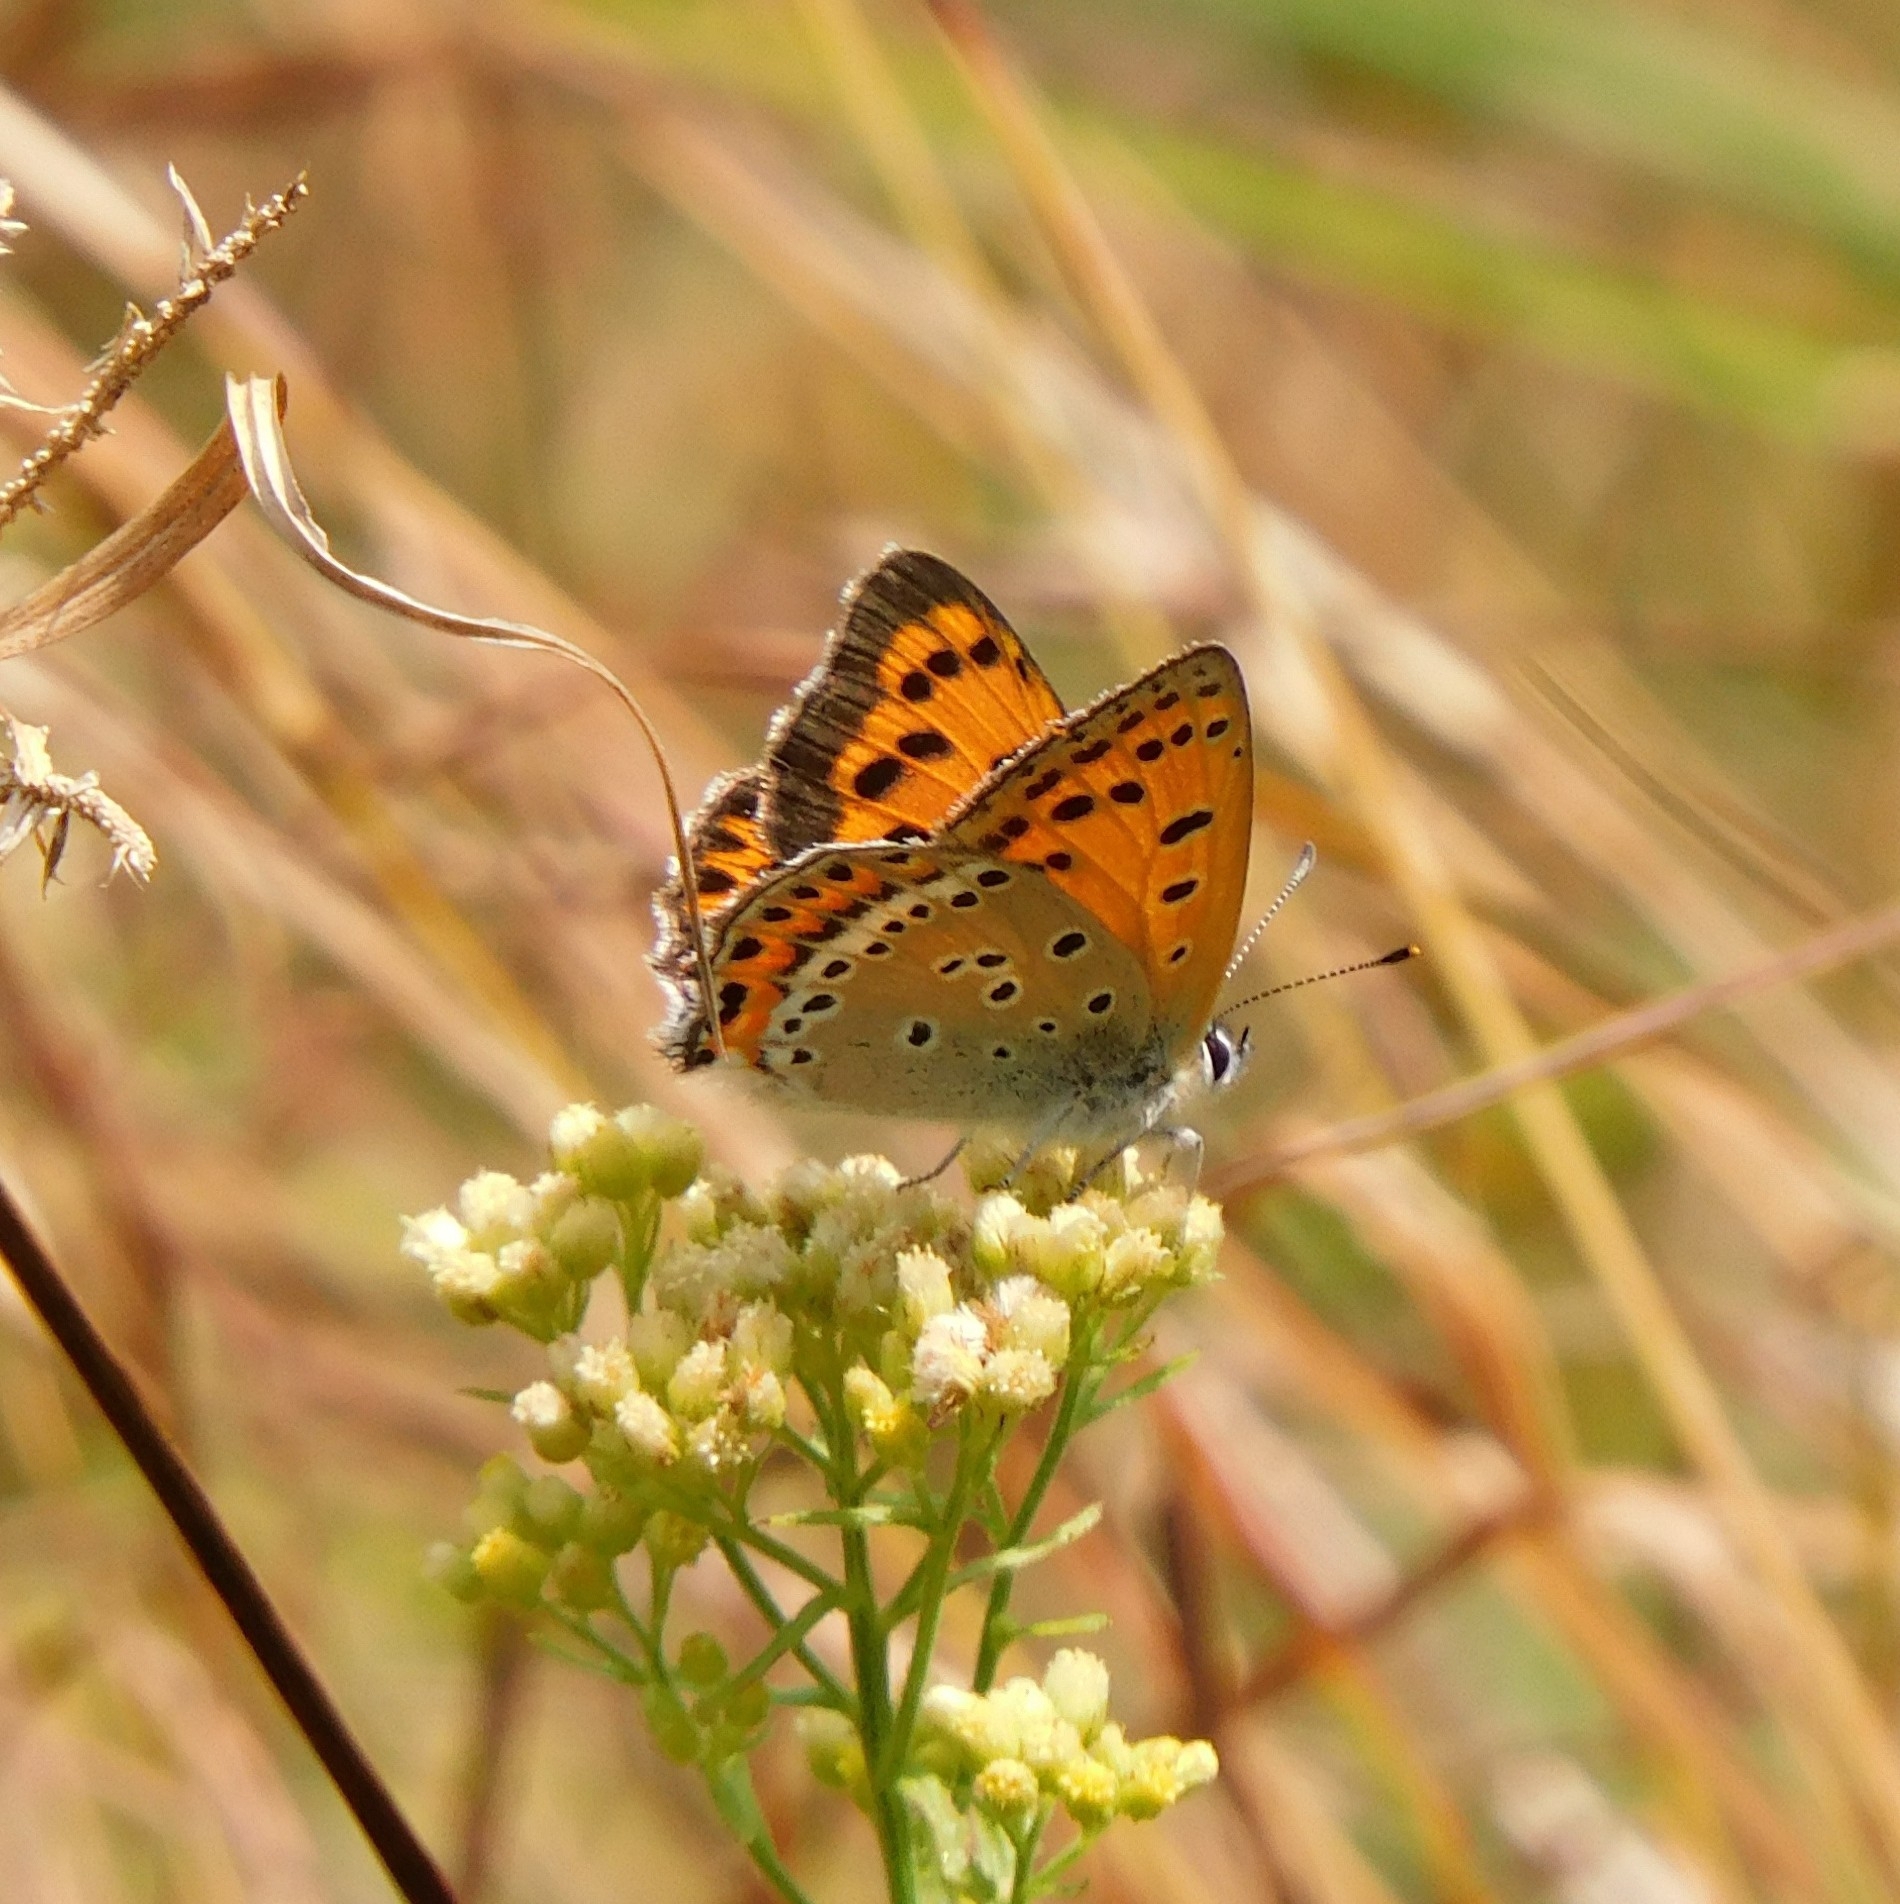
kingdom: Animalia
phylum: Arthropoda
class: Insecta
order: Lepidoptera
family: Lycaenidae
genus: Lycaena
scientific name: Lycaena panava
